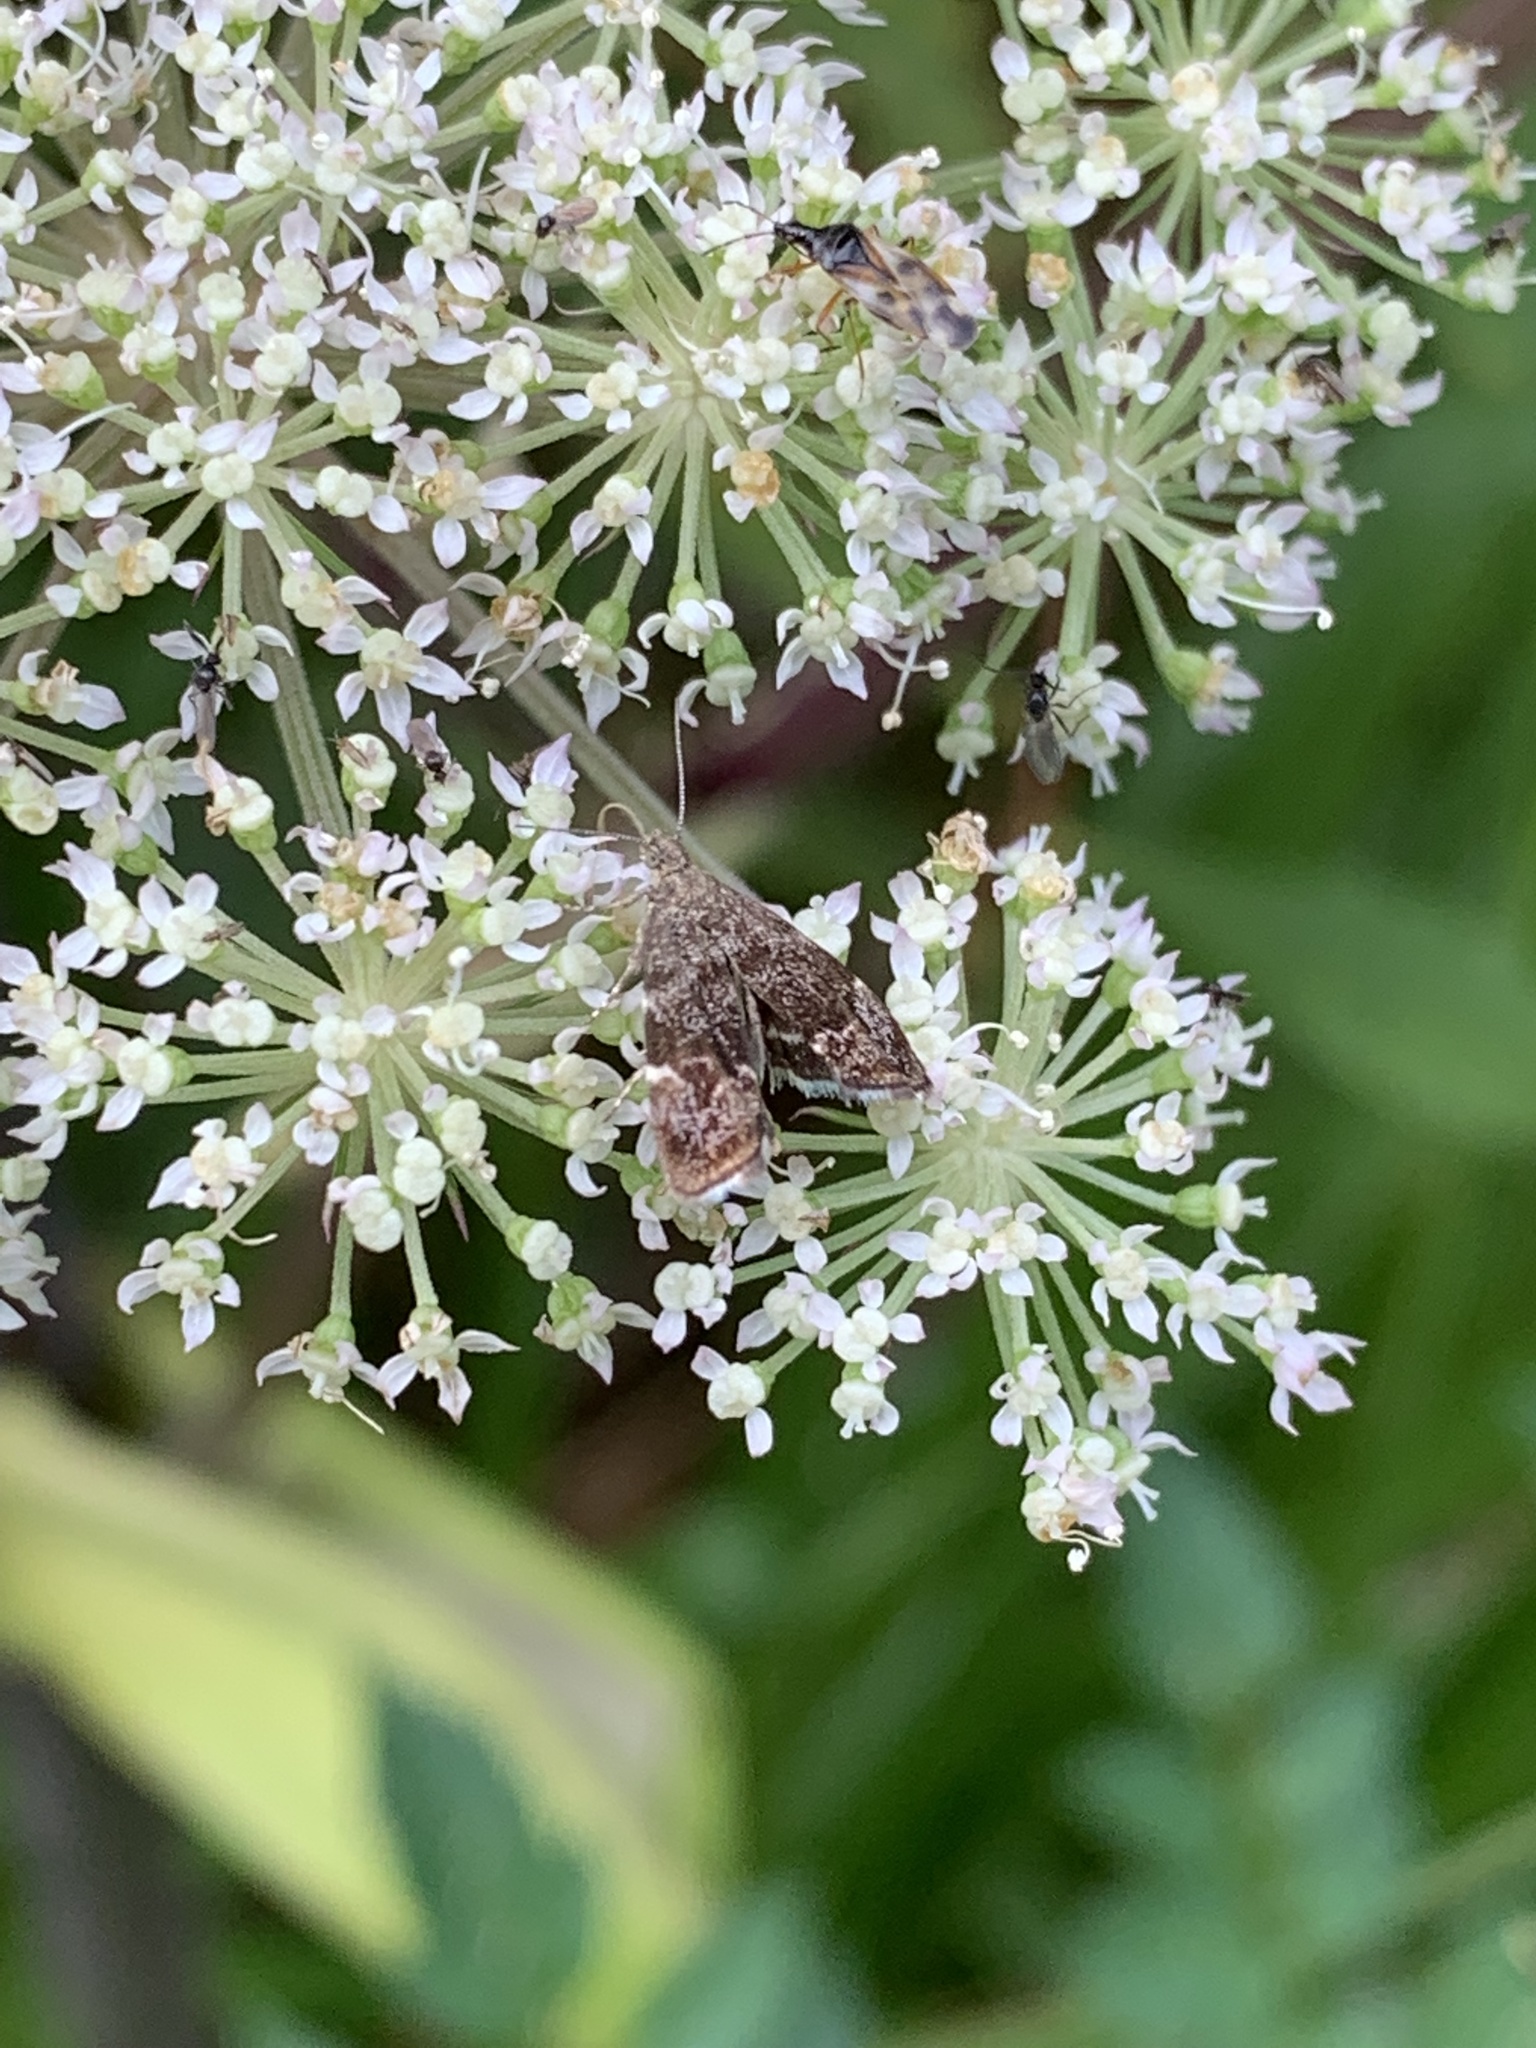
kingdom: Animalia
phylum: Arthropoda
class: Insecta
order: Lepidoptera
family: Choreutidae
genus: Anthophila
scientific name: Anthophila fabriciana
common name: Nettle-tap
